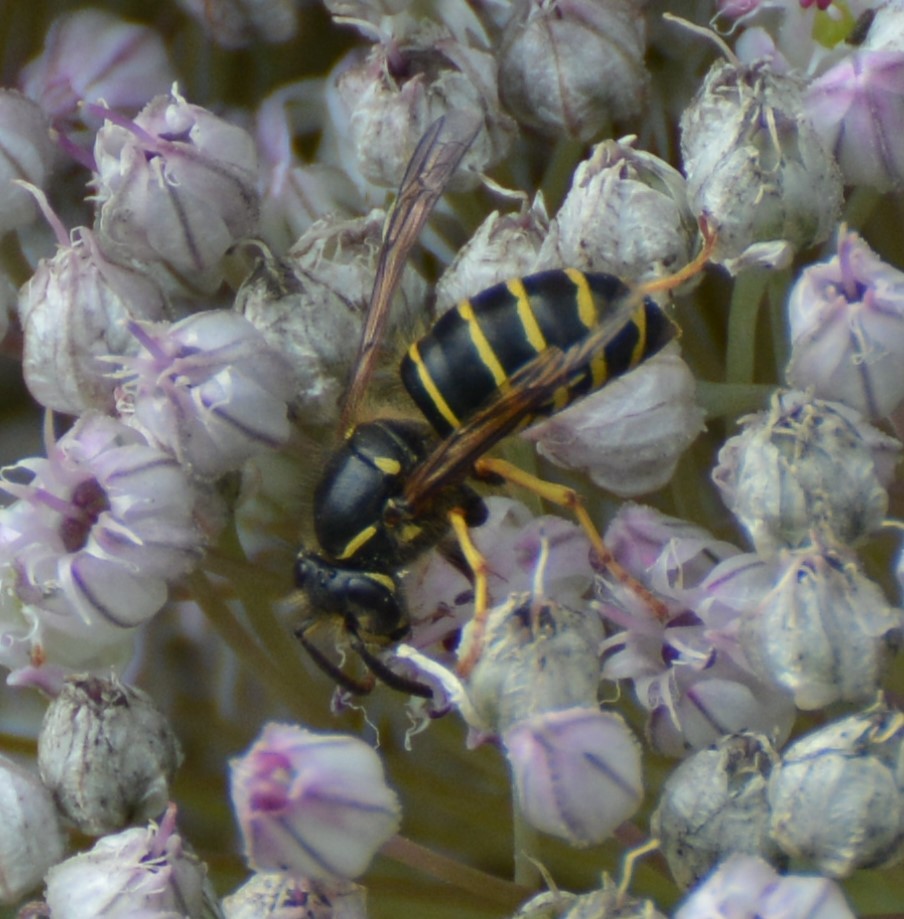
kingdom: Animalia
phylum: Arthropoda
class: Insecta
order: Hymenoptera
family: Vespidae
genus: Dolichovespula
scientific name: Dolichovespula norvegicoides
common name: Northern aerial yellowjacket
